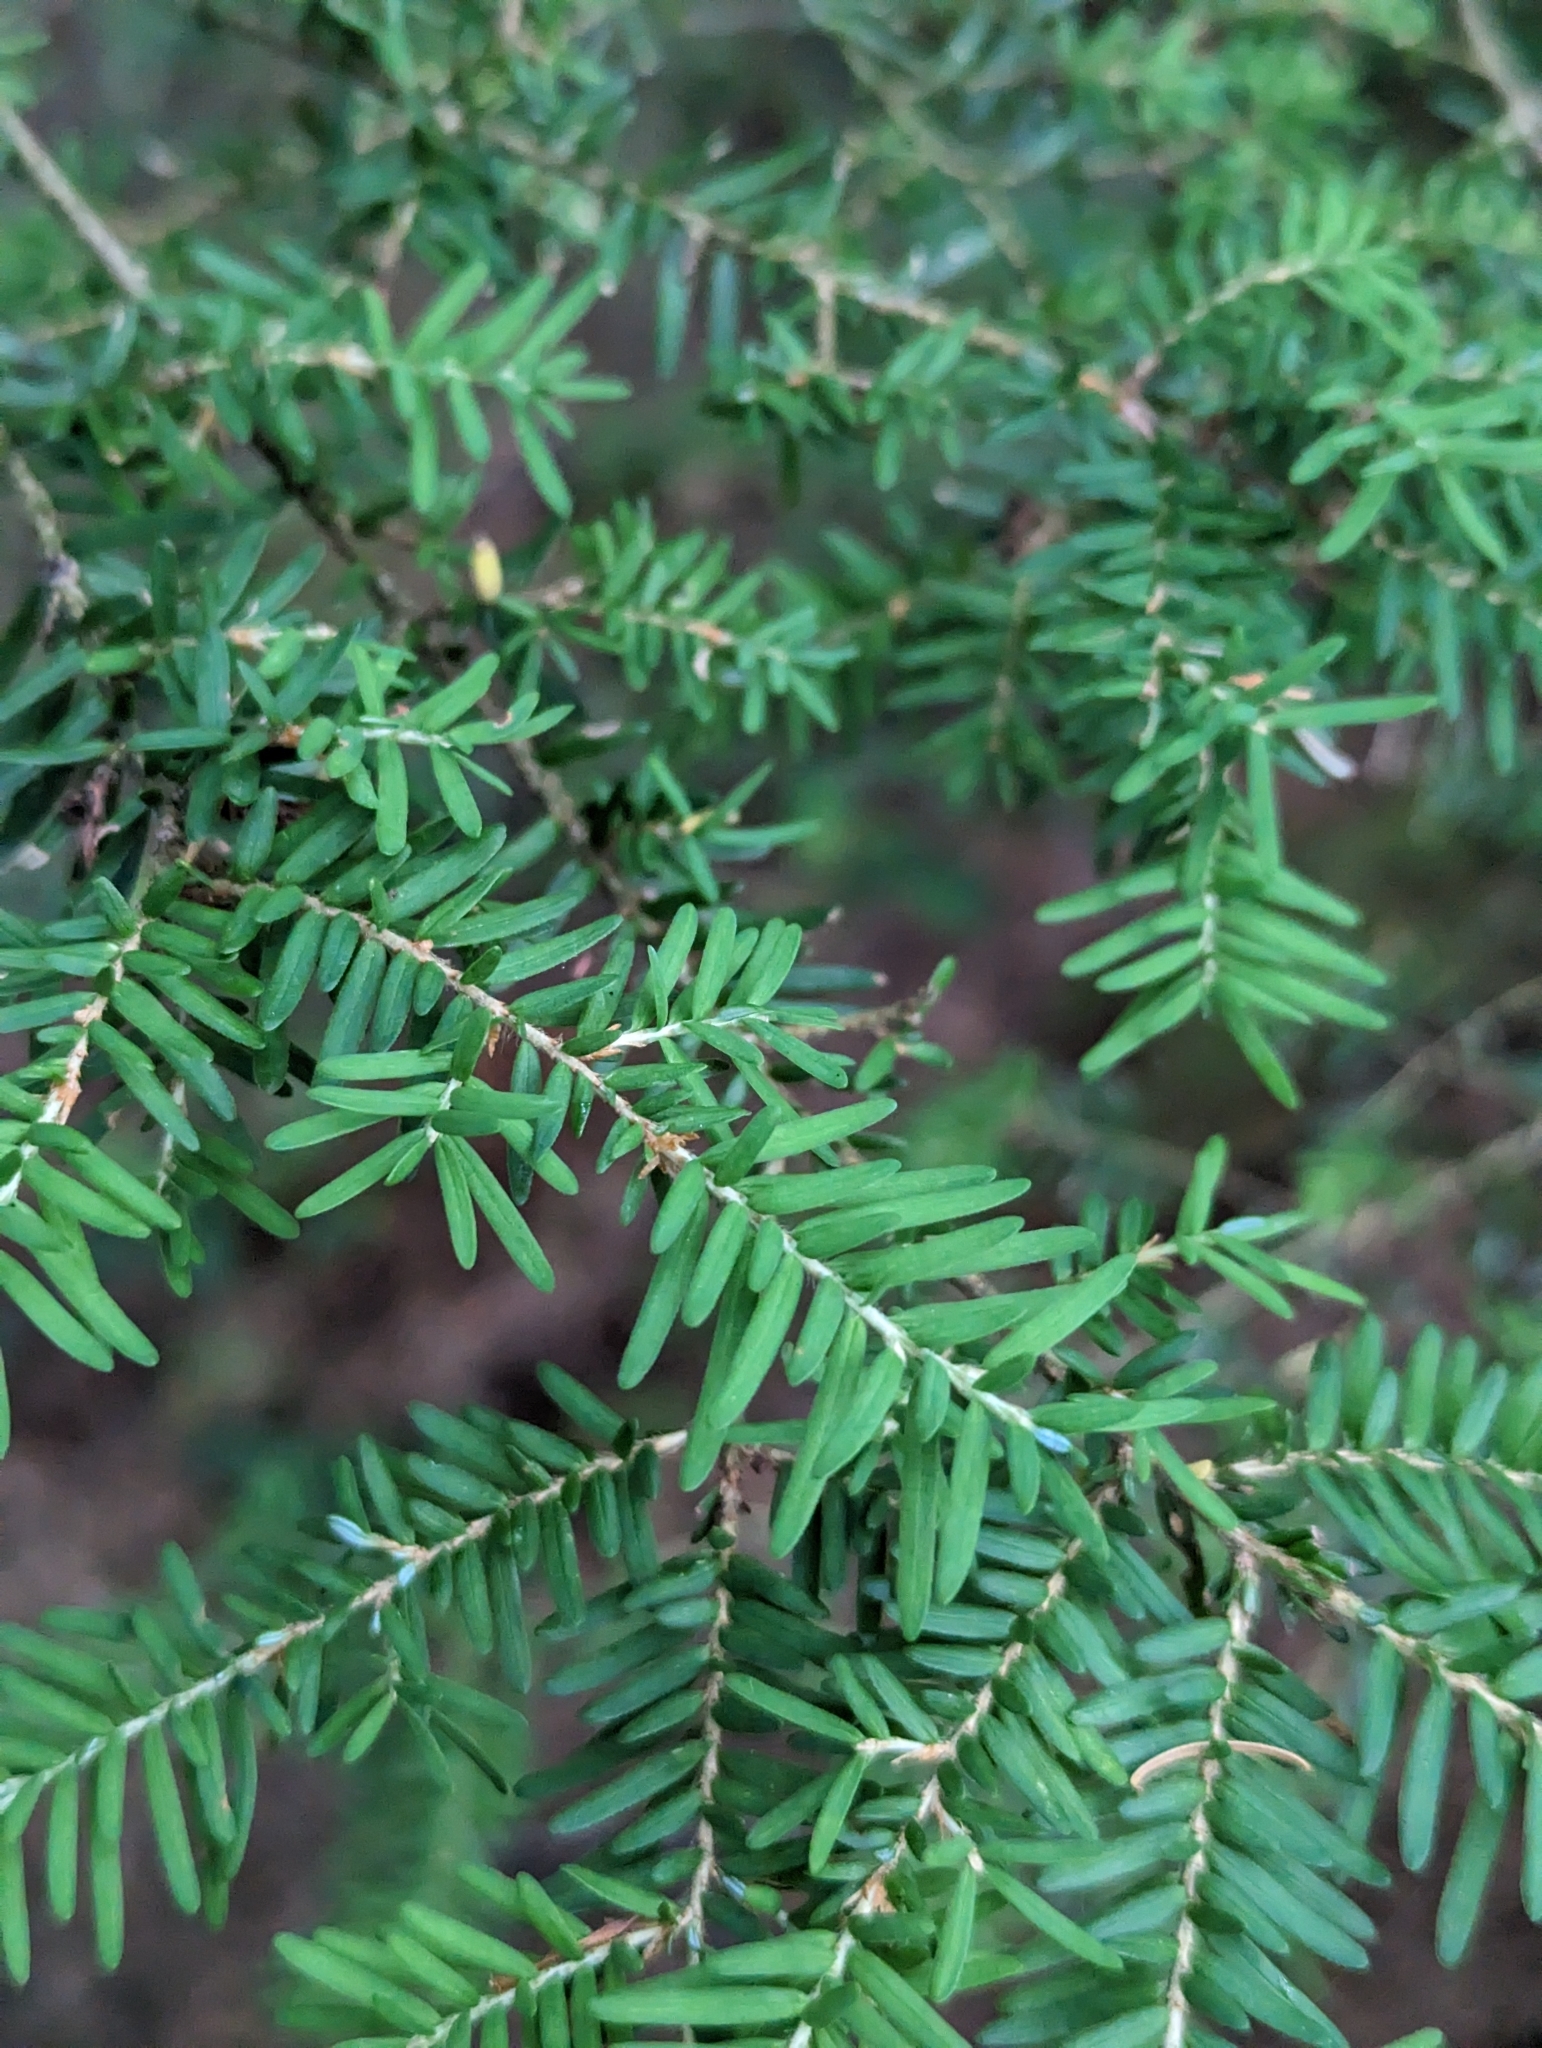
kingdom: Plantae
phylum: Tracheophyta
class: Pinopsida
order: Pinales
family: Pinaceae
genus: Tsuga
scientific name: Tsuga heterophylla
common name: Western hemlock
